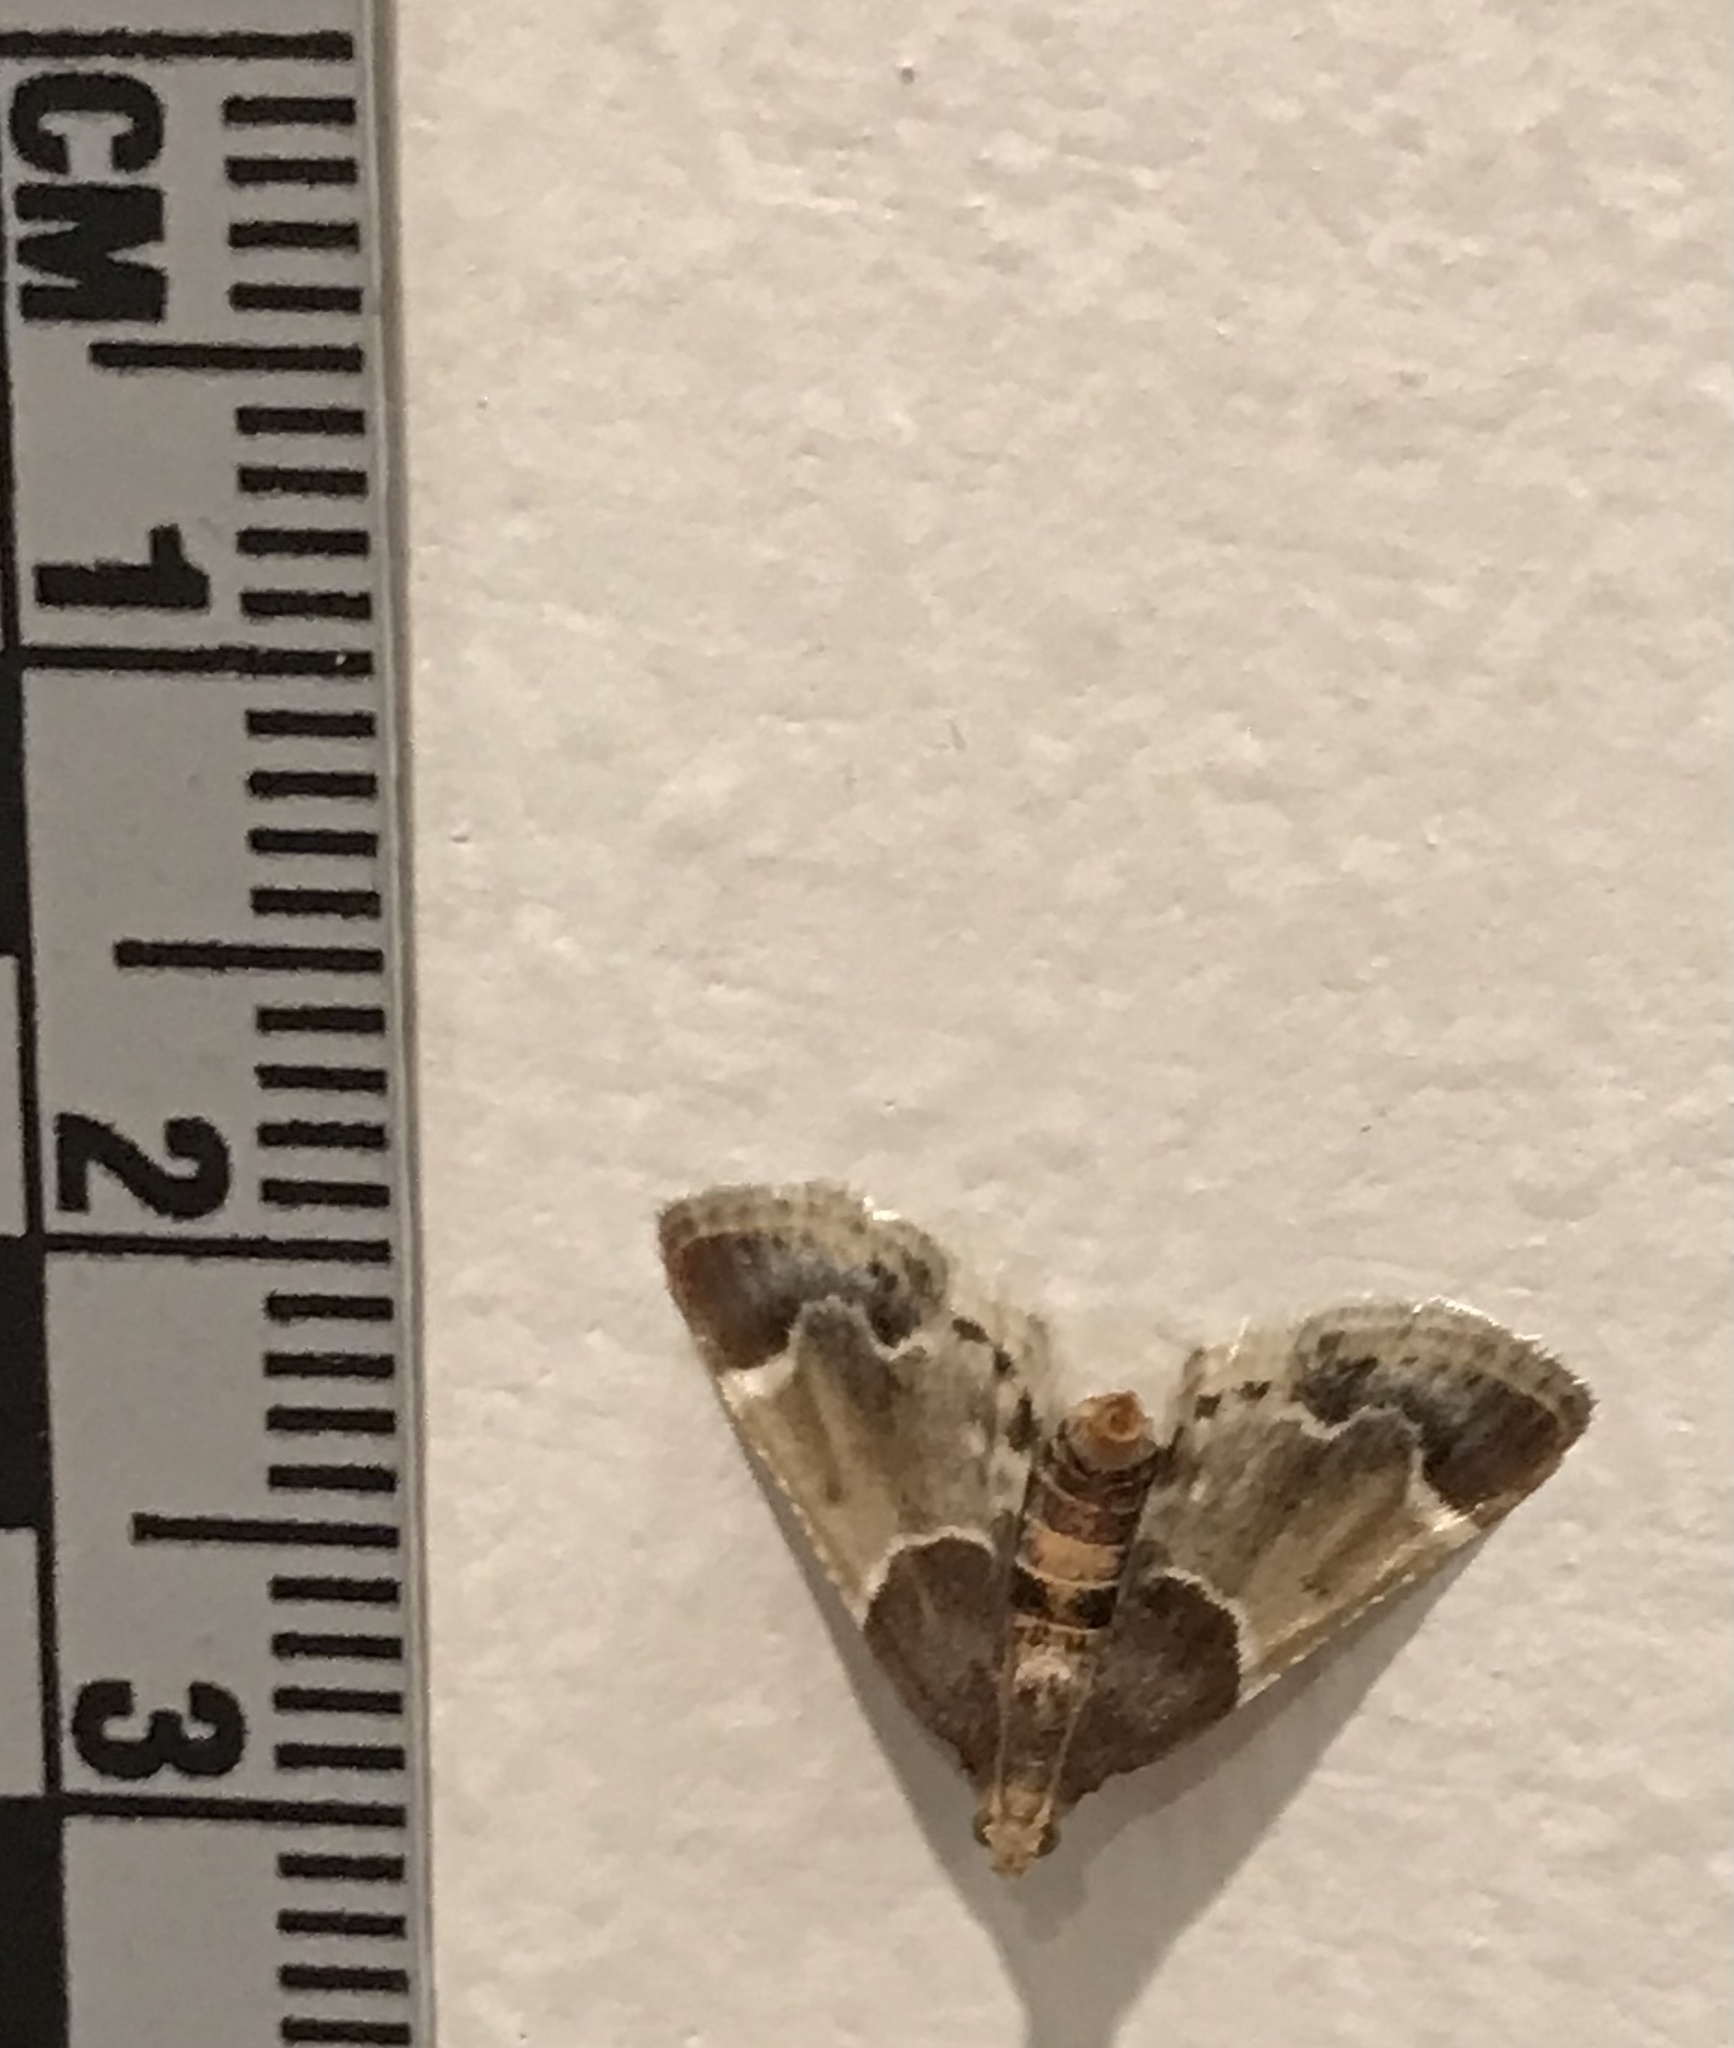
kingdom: Animalia
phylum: Arthropoda
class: Insecta
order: Lepidoptera
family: Pyralidae
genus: Pyralis
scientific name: Pyralis farinalis
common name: Meal moth
